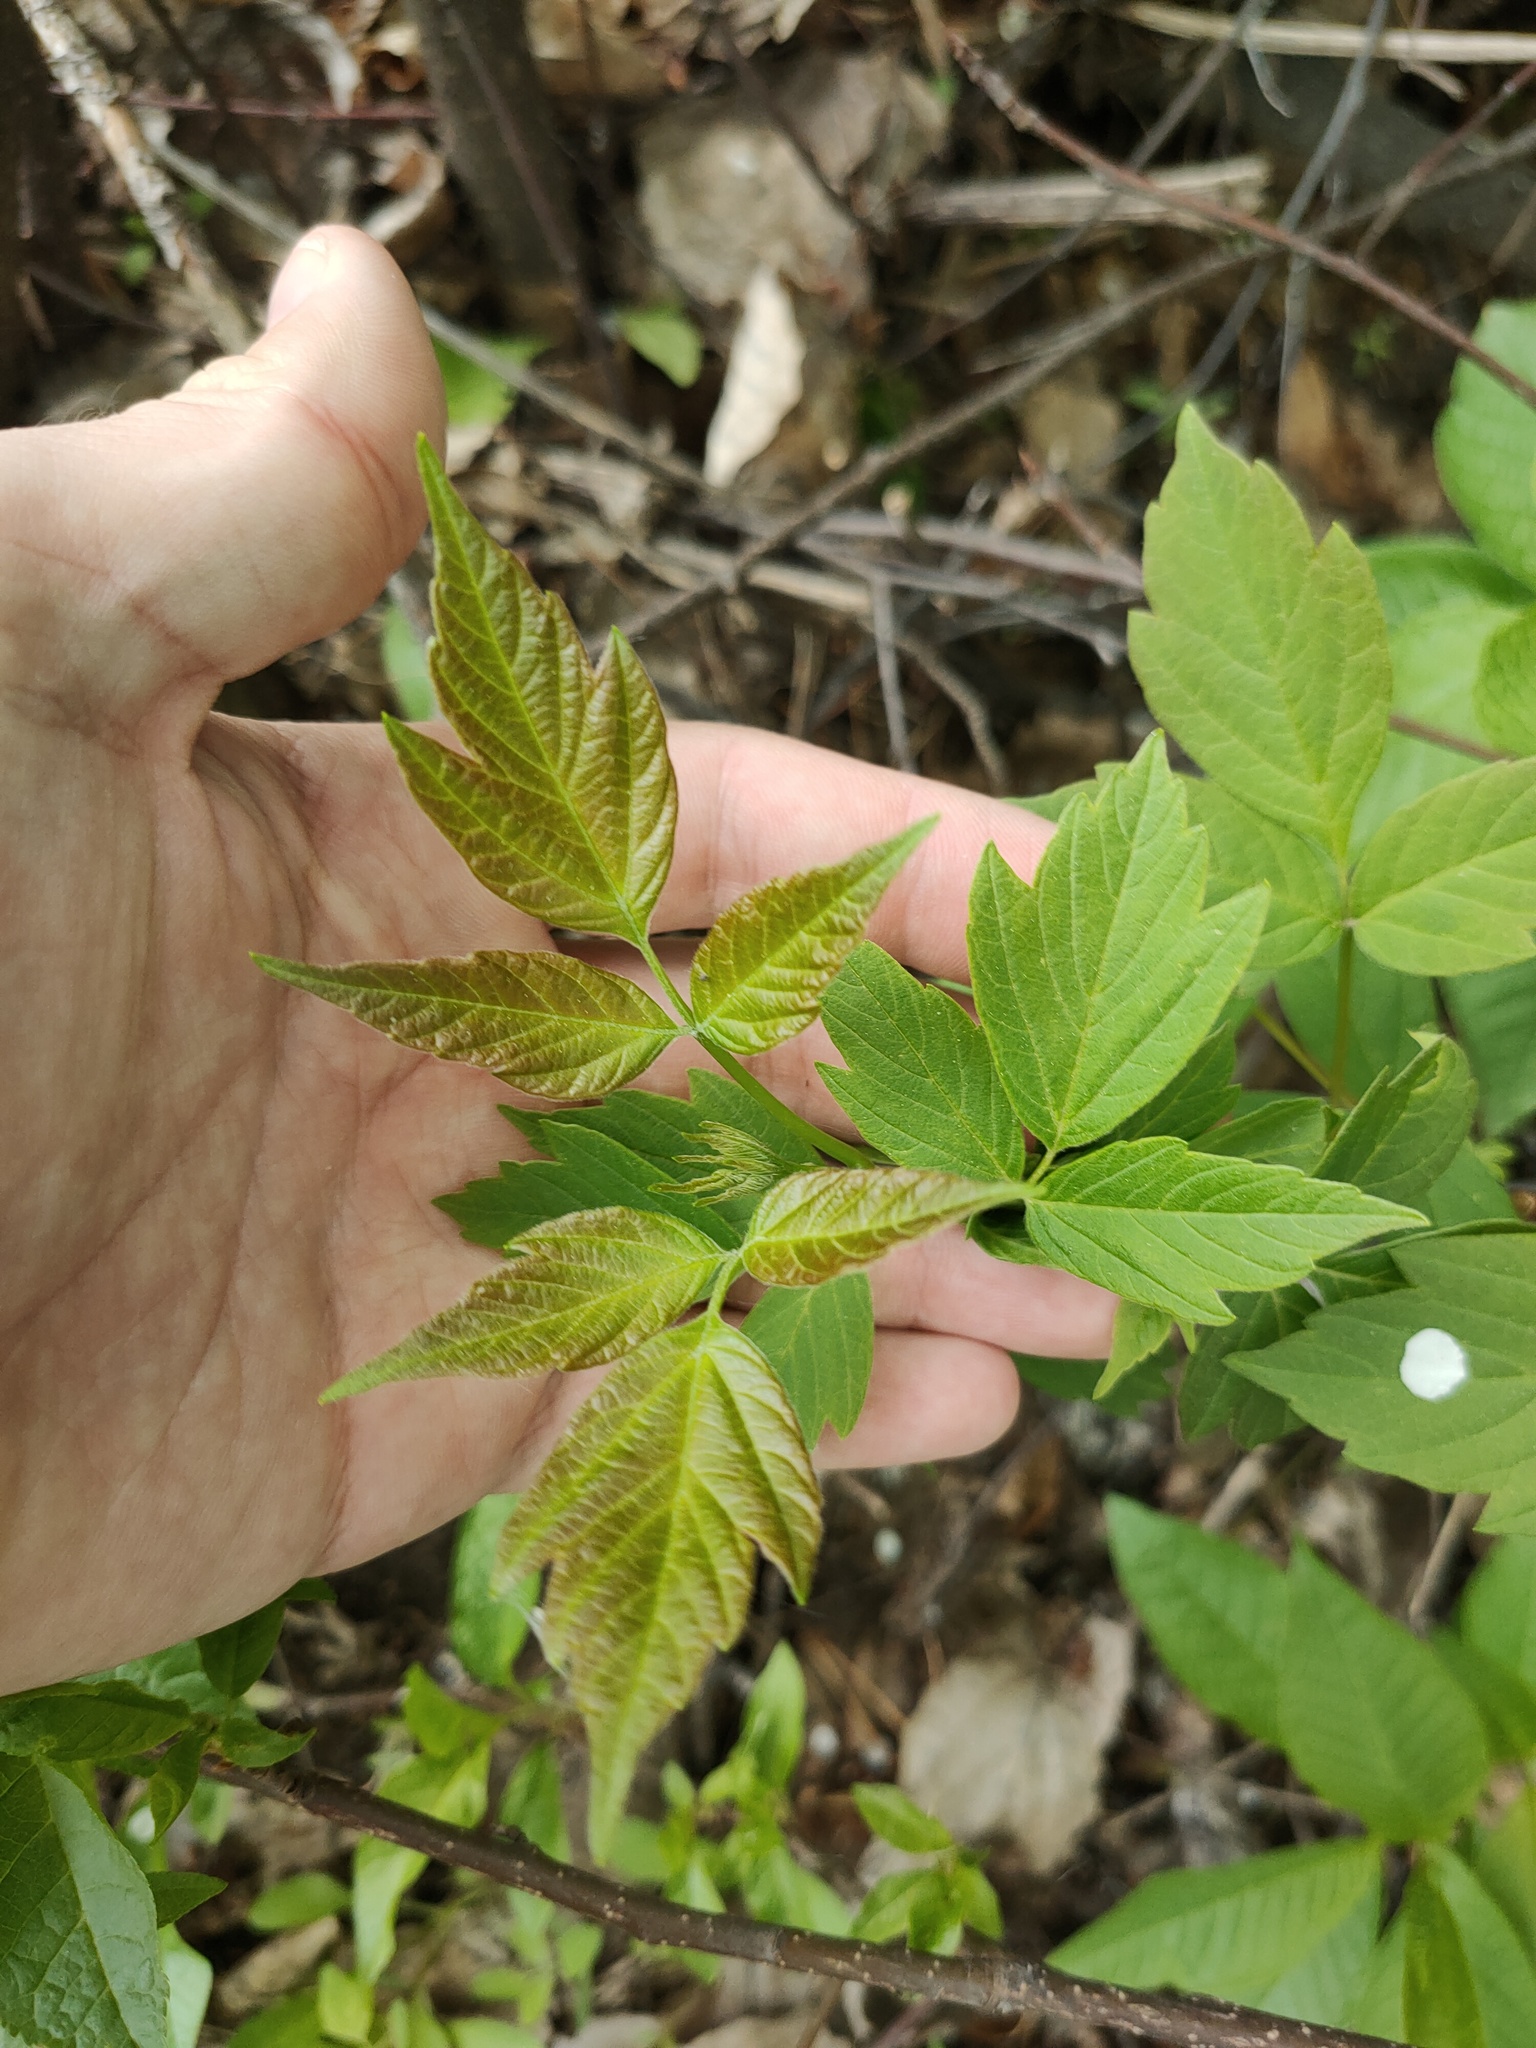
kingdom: Plantae
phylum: Tracheophyta
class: Magnoliopsida
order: Sapindales
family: Sapindaceae
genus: Acer
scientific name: Acer negundo
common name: Ashleaf maple
